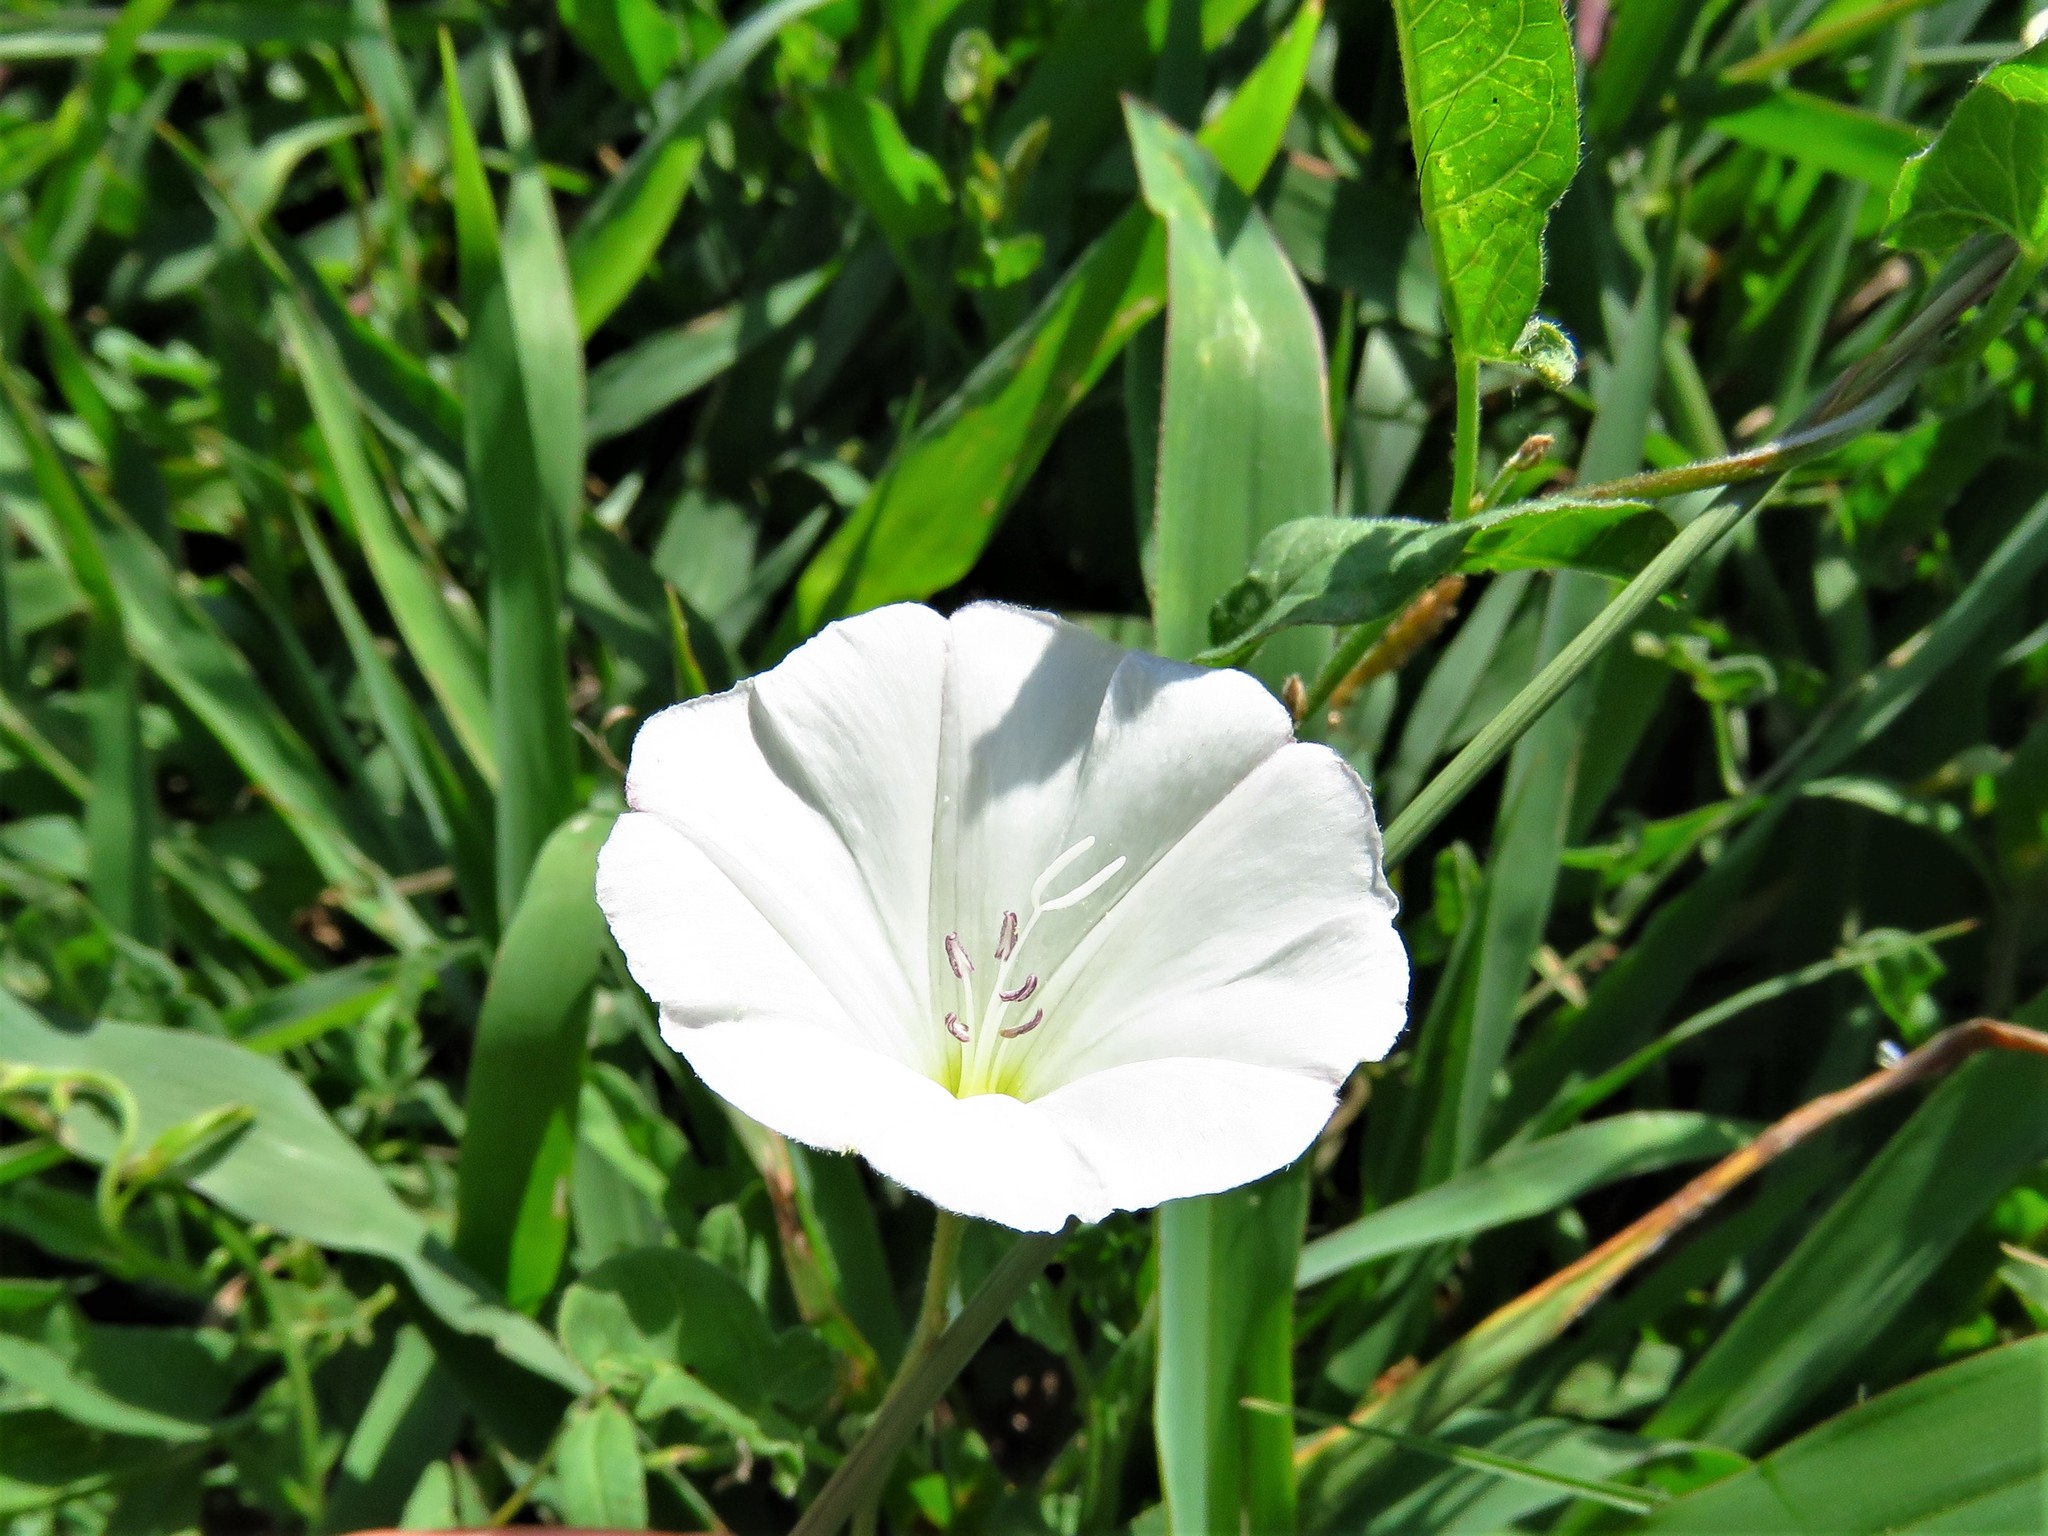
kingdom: Plantae
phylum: Tracheophyta
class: Magnoliopsida
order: Solanales
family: Convolvulaceae
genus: Convolvulus
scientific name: Convolvulus arvensis
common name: Field bindweed
